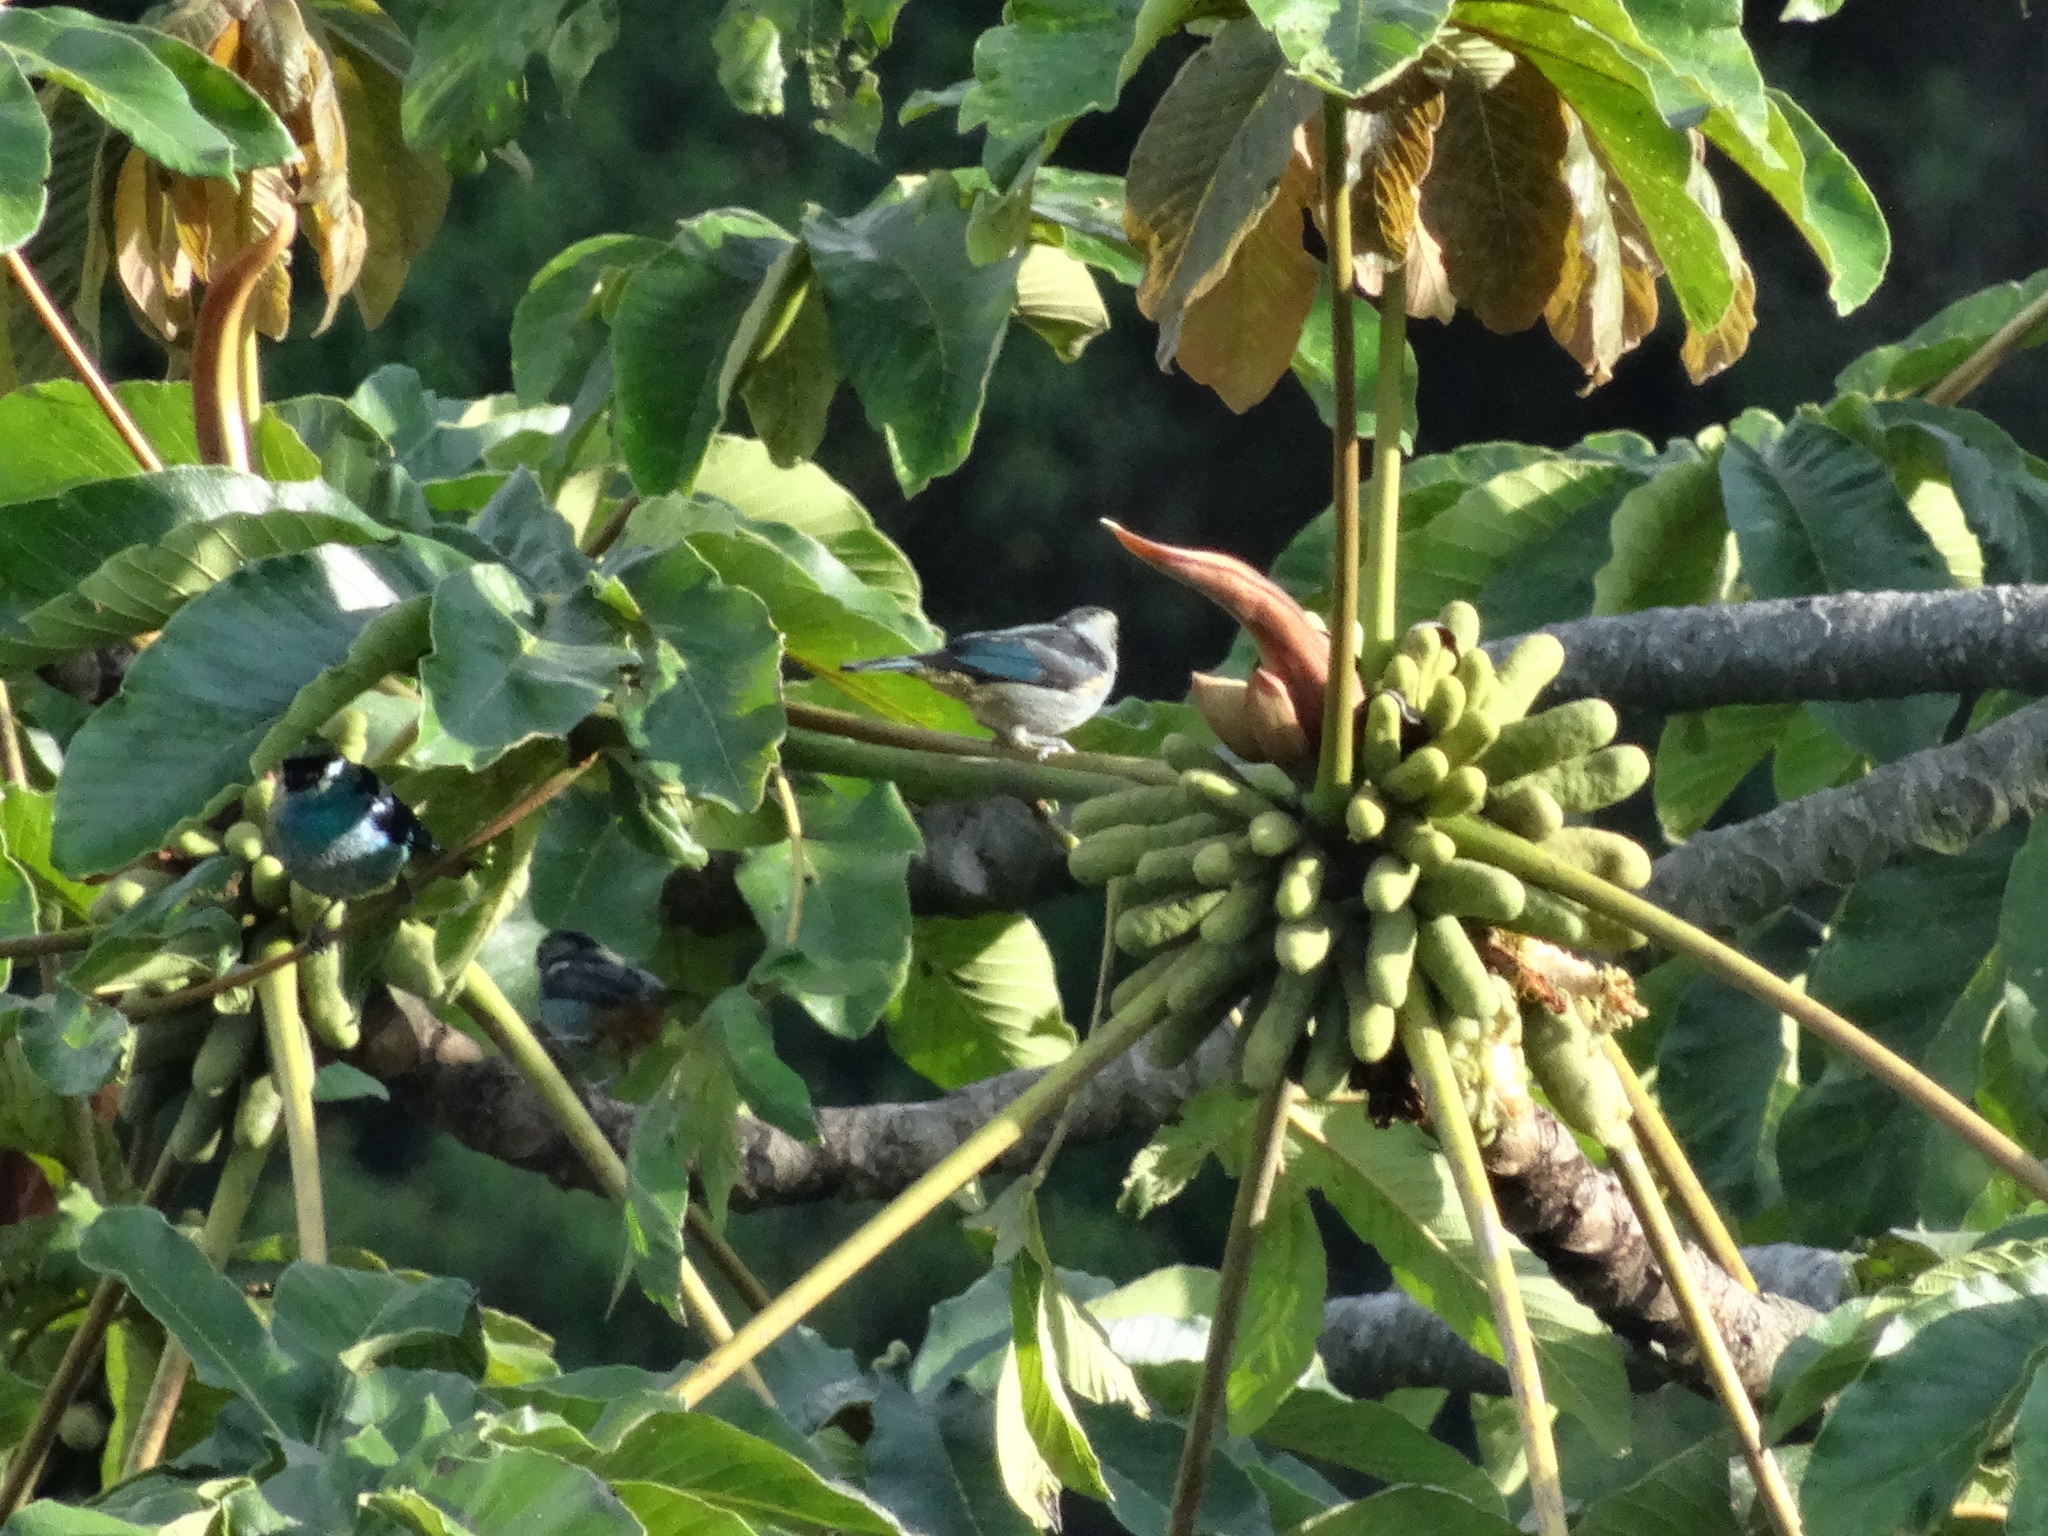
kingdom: Animalia
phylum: Chordata
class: Aves
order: Passeriformes
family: Thraupidae
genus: Tangara
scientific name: Tangara labradorides
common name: Metallic-green tanager
